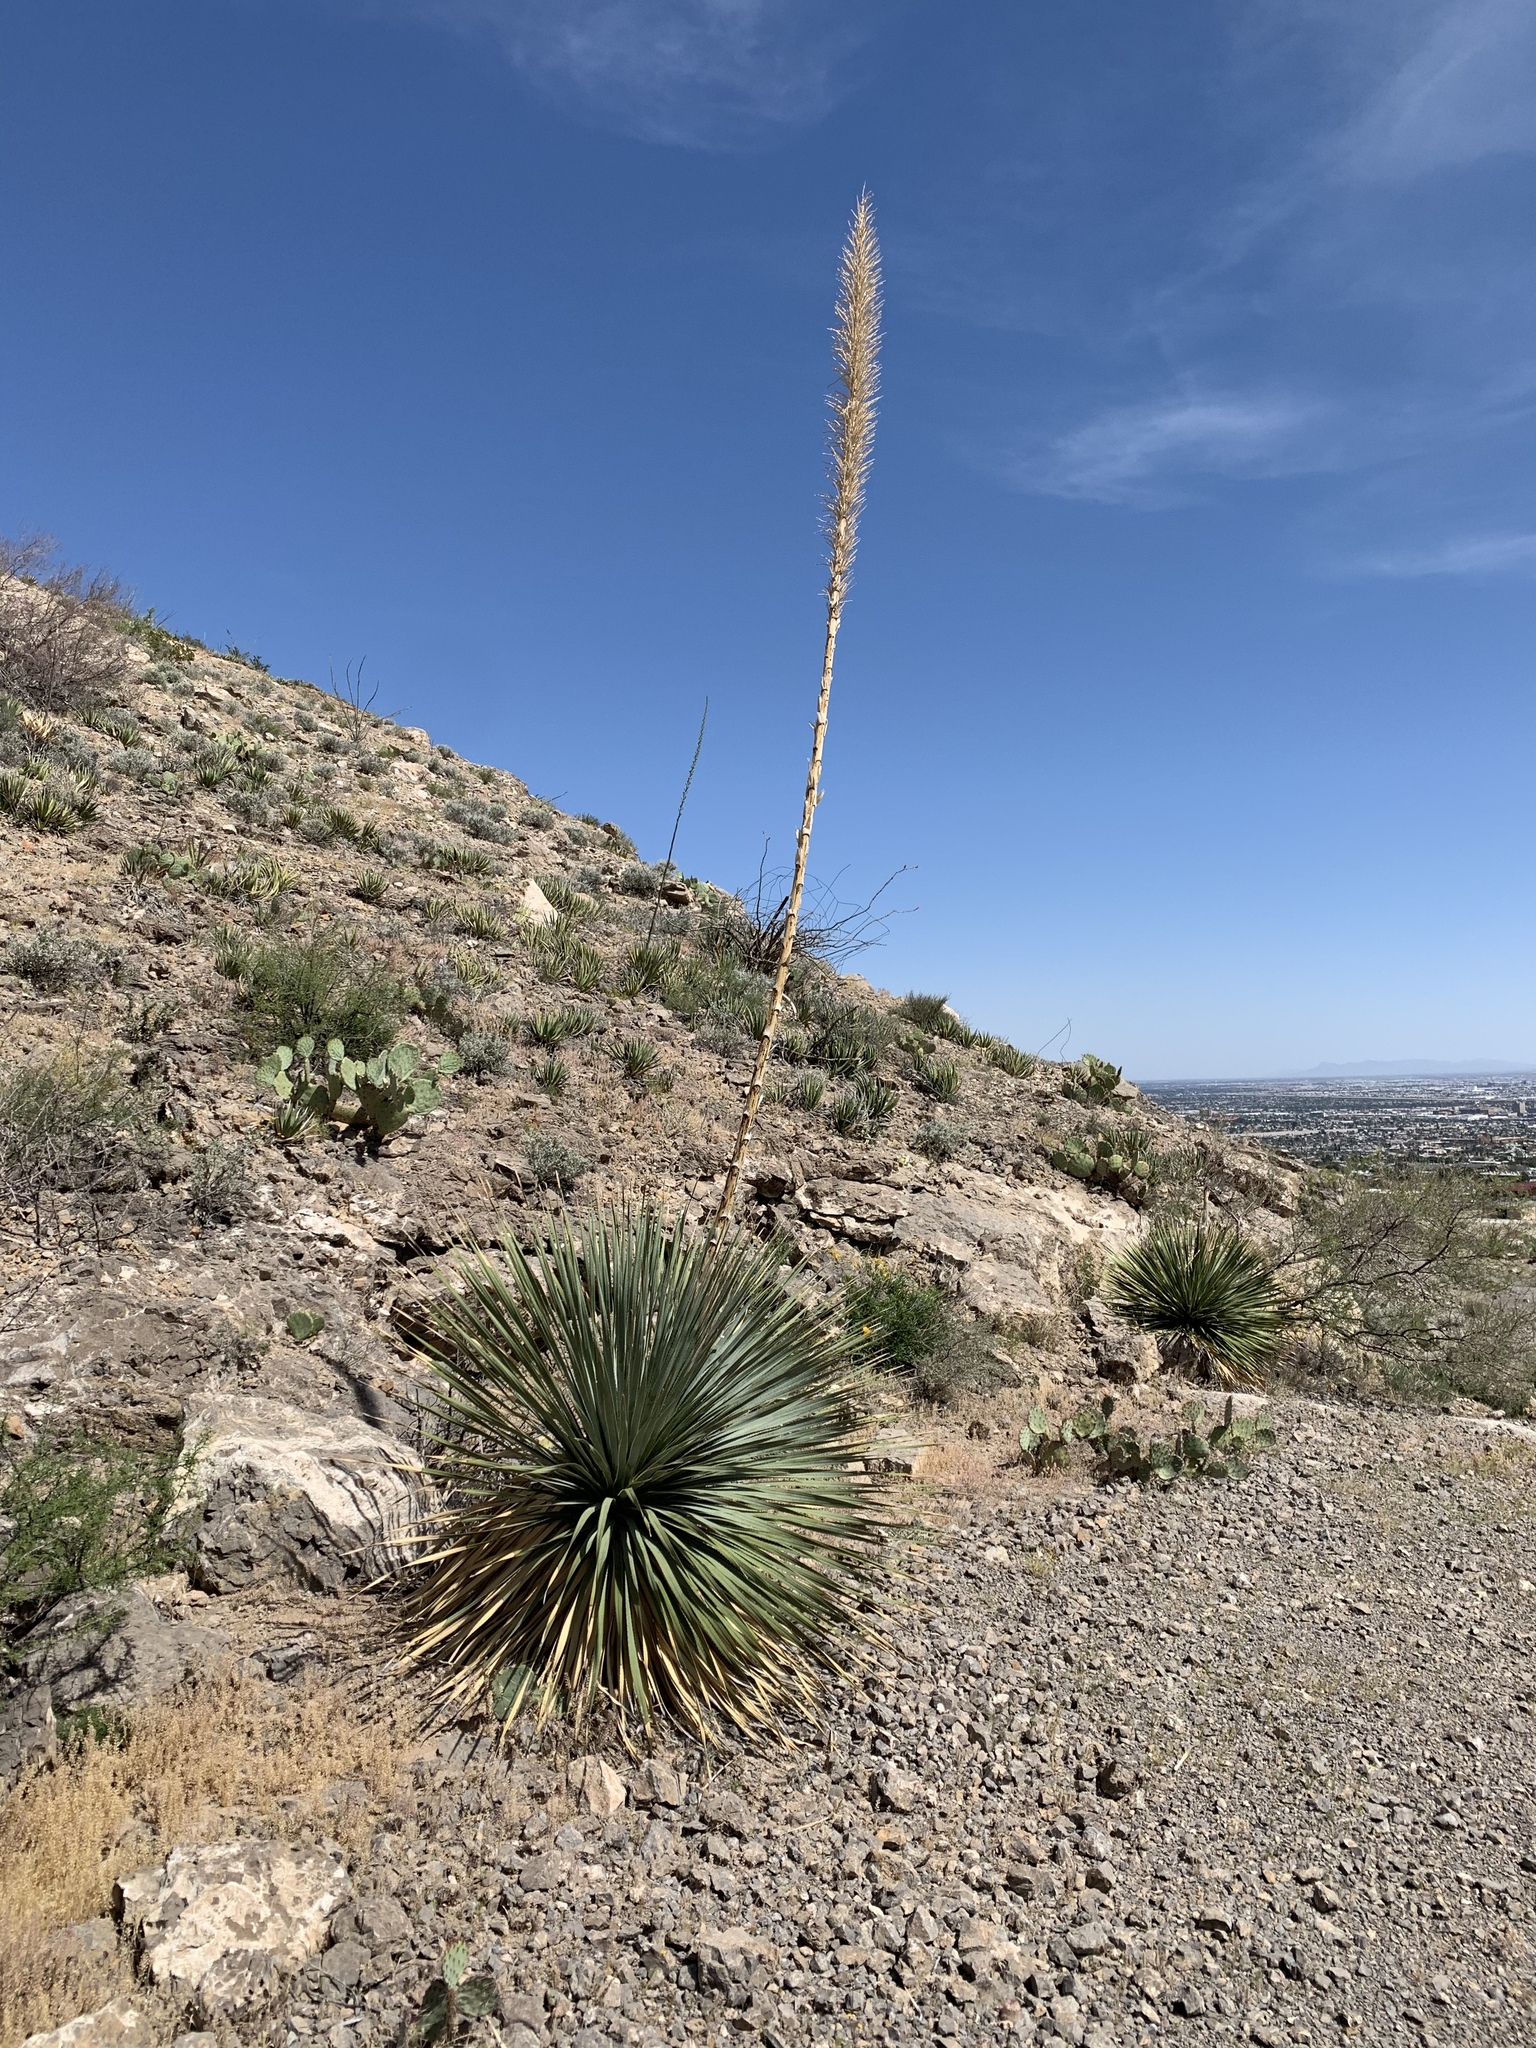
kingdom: Plantae
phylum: Tracheophyta
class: Liliopsida
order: Asparagales
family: Asparagaceae
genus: Dasylirion
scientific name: Dasylirion wheeleri
